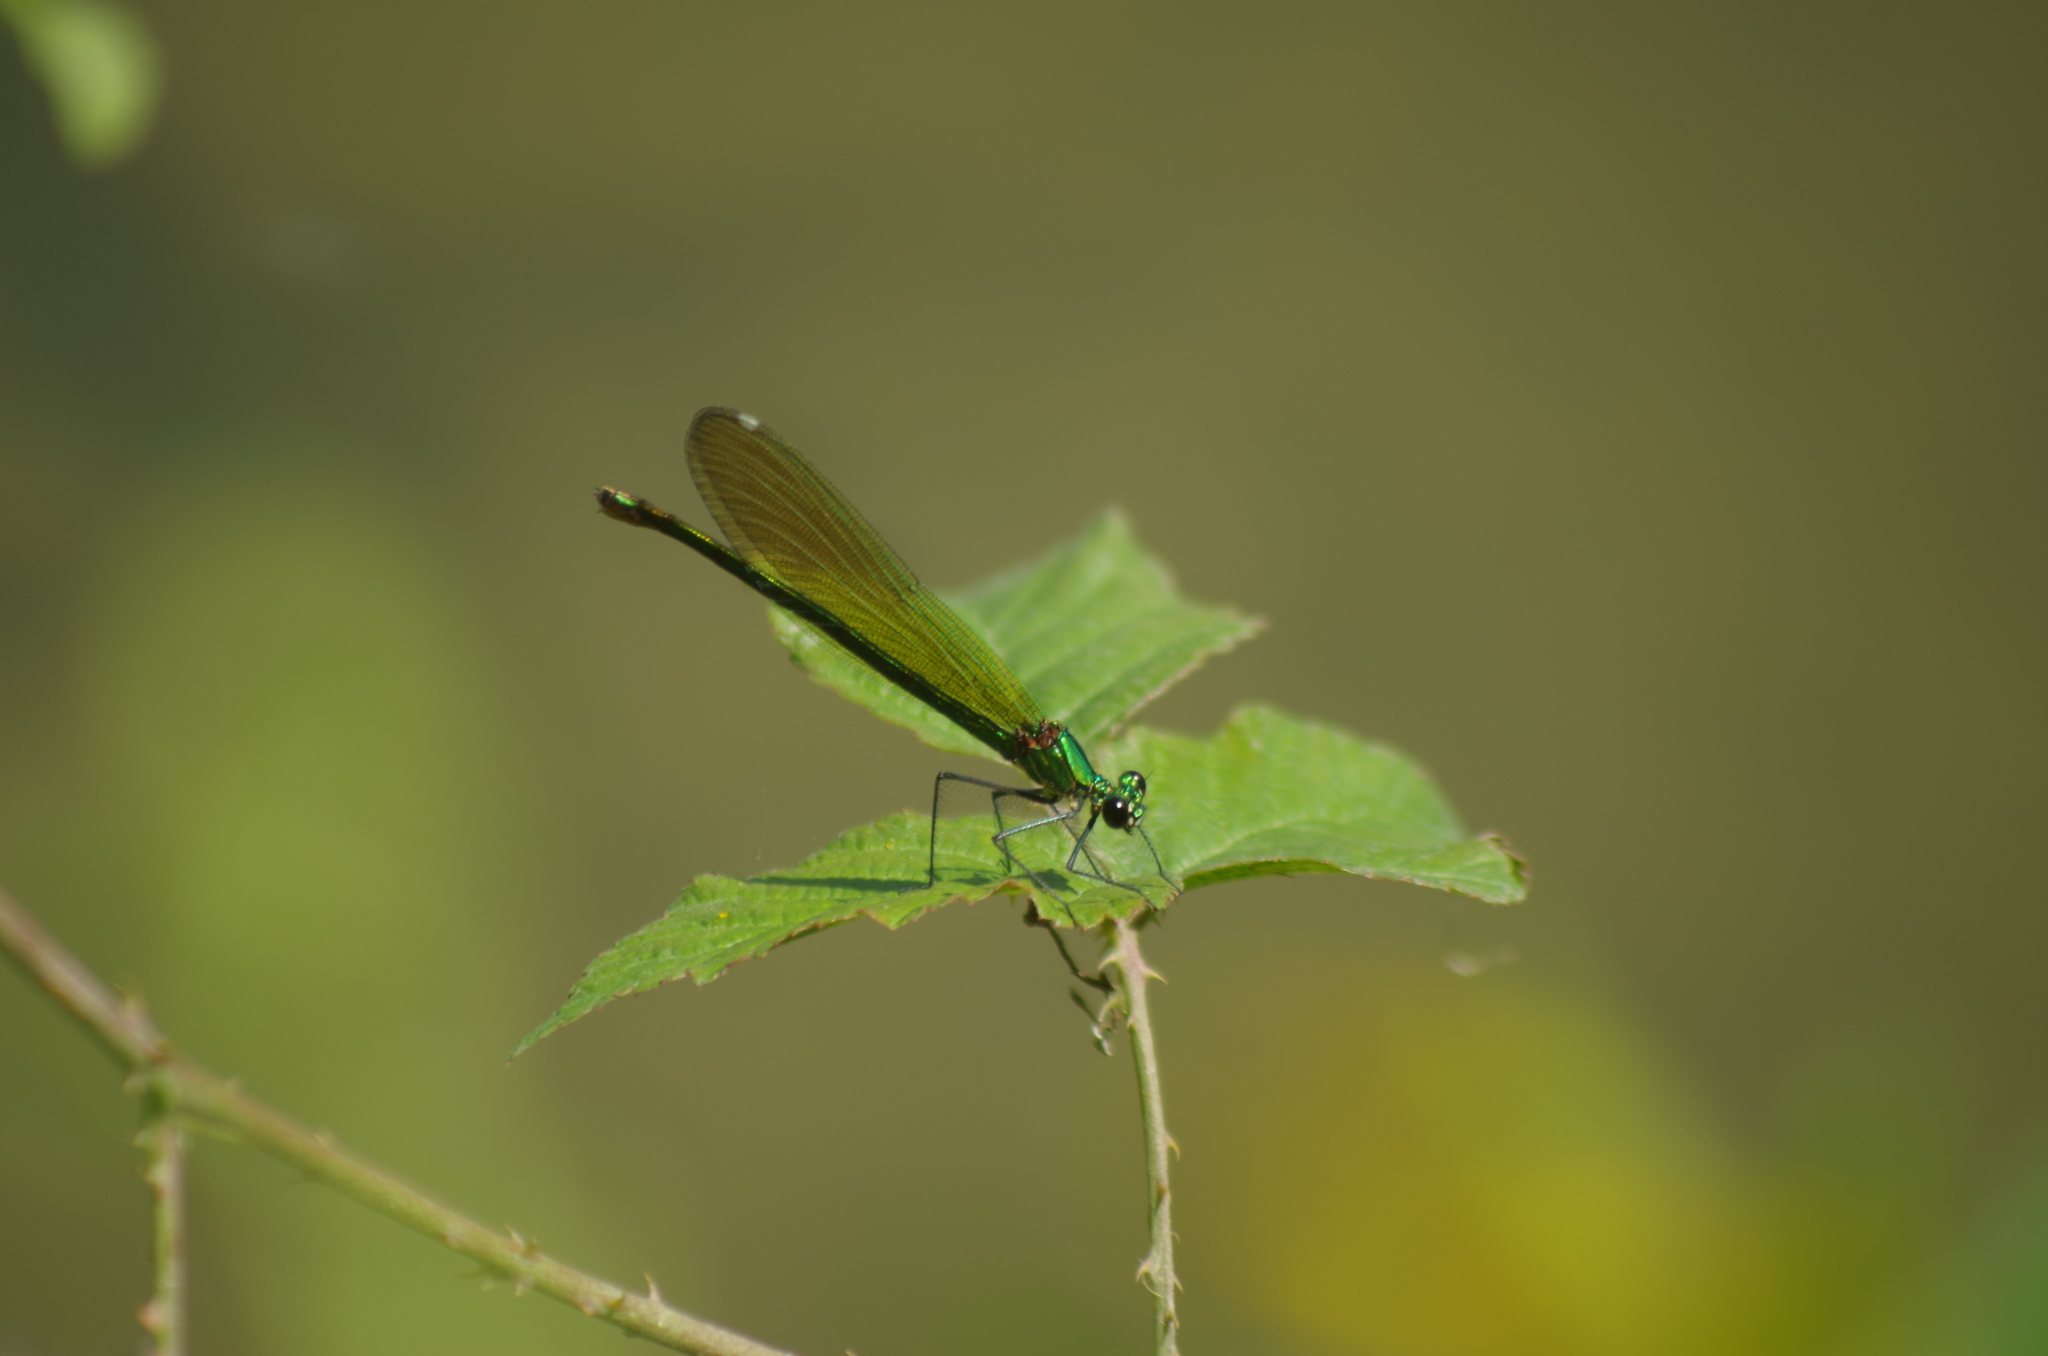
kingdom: Animalia
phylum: Arthropoda
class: Insecta
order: Odonata
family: Calopterygidae
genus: Calopteryx
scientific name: Calopteryx splendens
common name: Banded demoiselle
